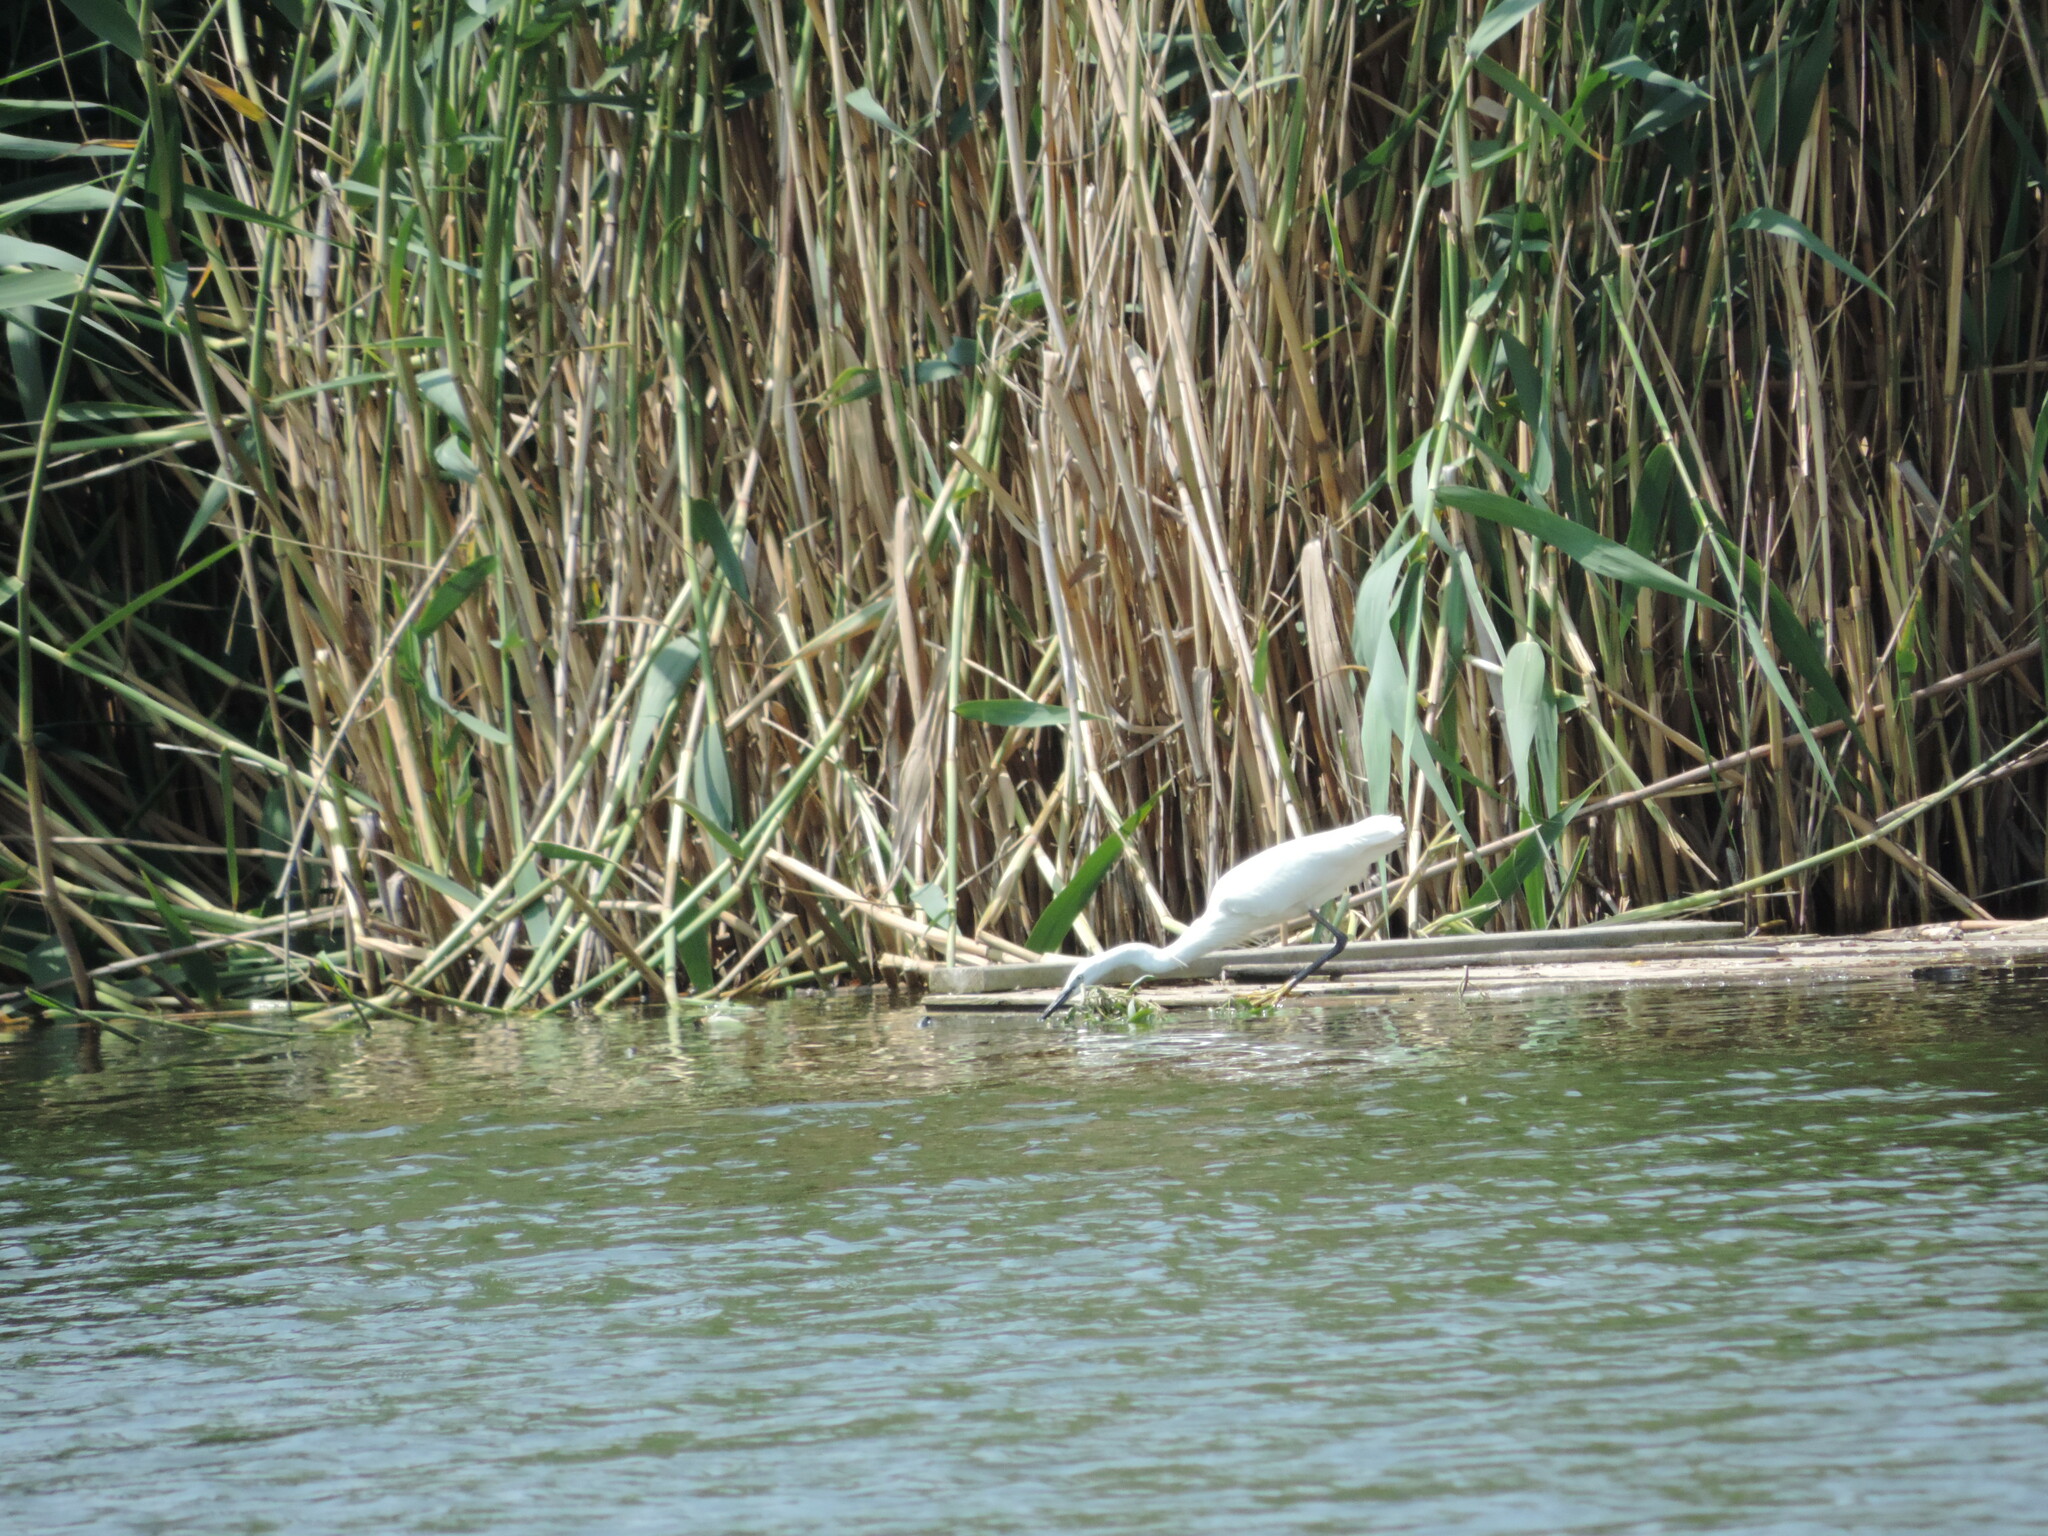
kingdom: Animalia
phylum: Chordata
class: Aves
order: Pelecaniformes
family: Ardeidae
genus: Egretta
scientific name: Egretta garzetta
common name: Little egret
